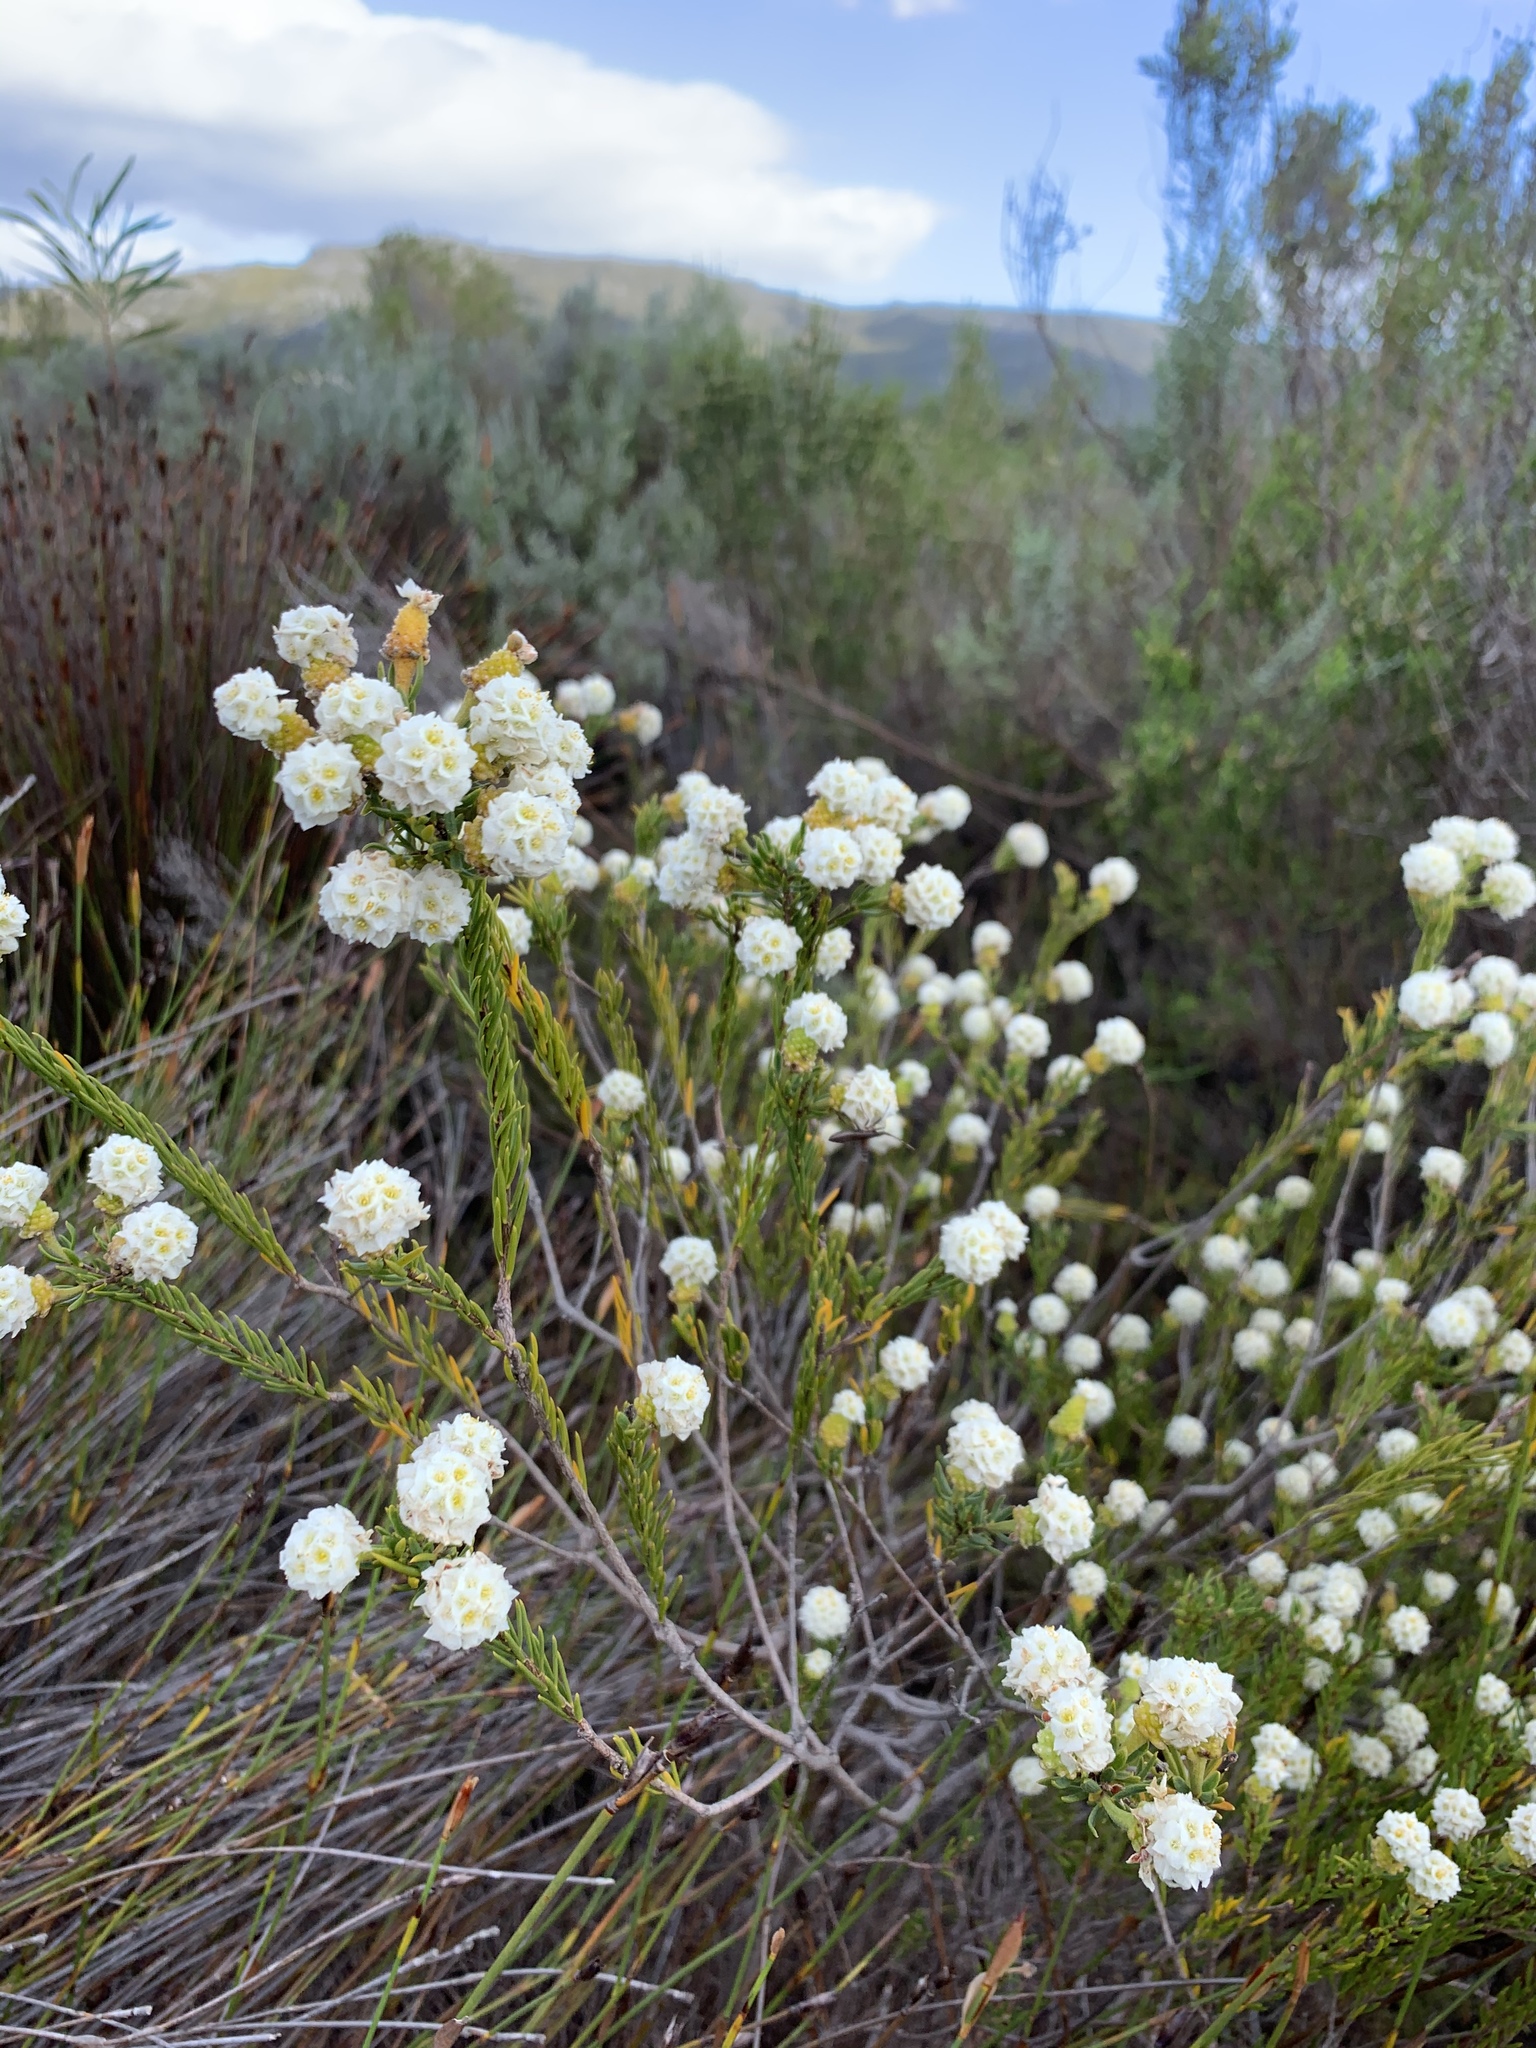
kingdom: Plantae
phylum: Tracheophyta
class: Magnoliopsida
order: Malvales
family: Thymelaeaceae
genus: Lachnaea
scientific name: Lachnaea densiflora
